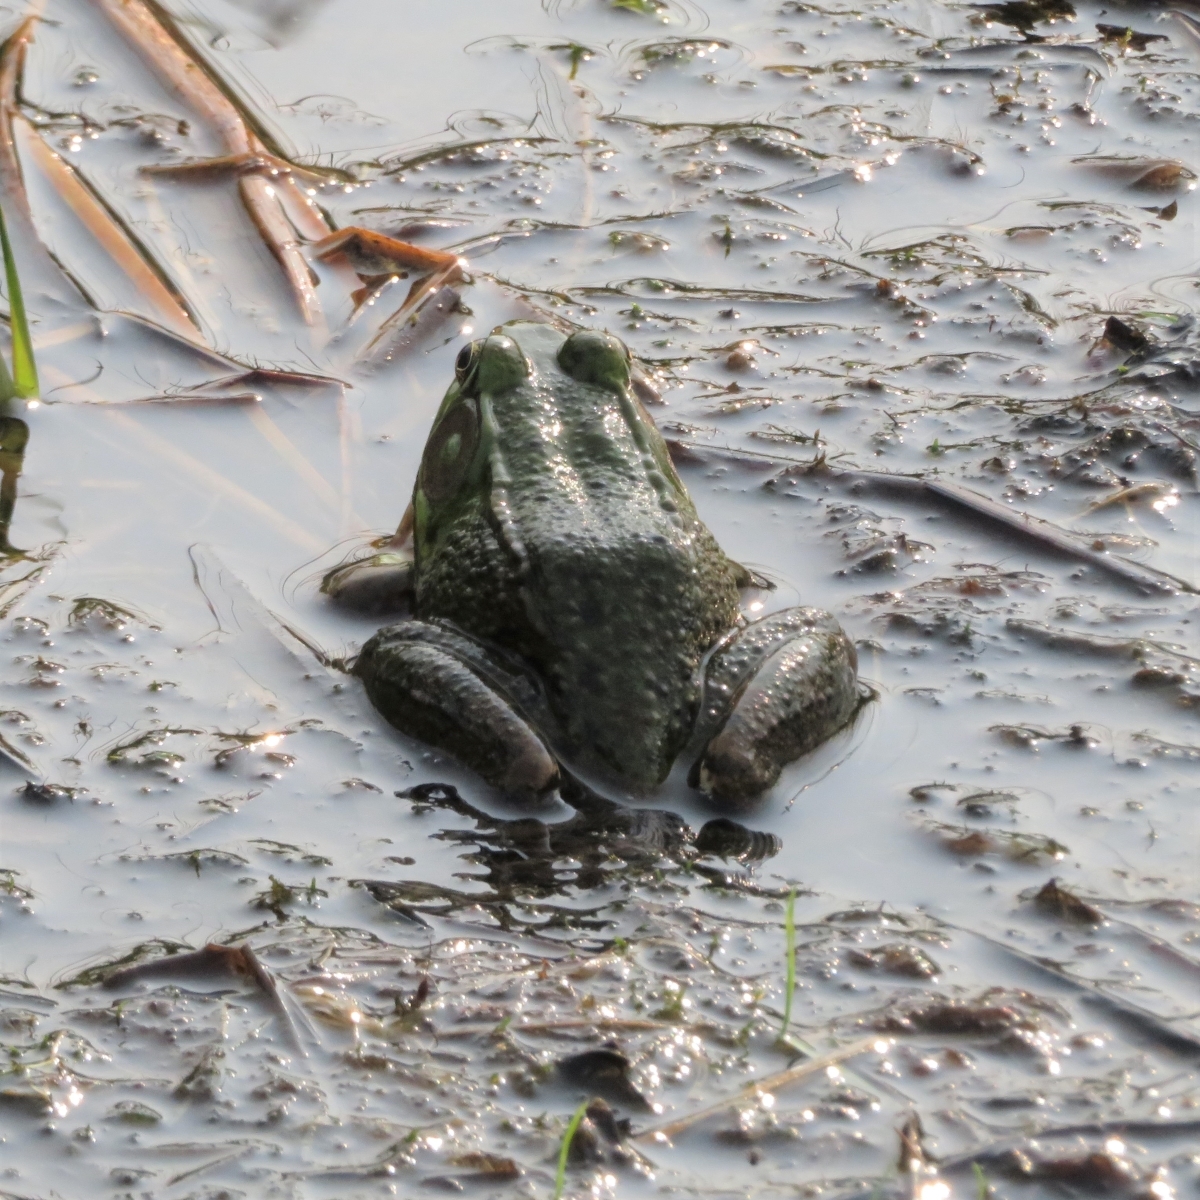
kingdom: Animalia
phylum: Chordata
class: Amphibia
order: Anura
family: Ranidae
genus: Lithobates
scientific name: Lithobates clamitans
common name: Green frog
